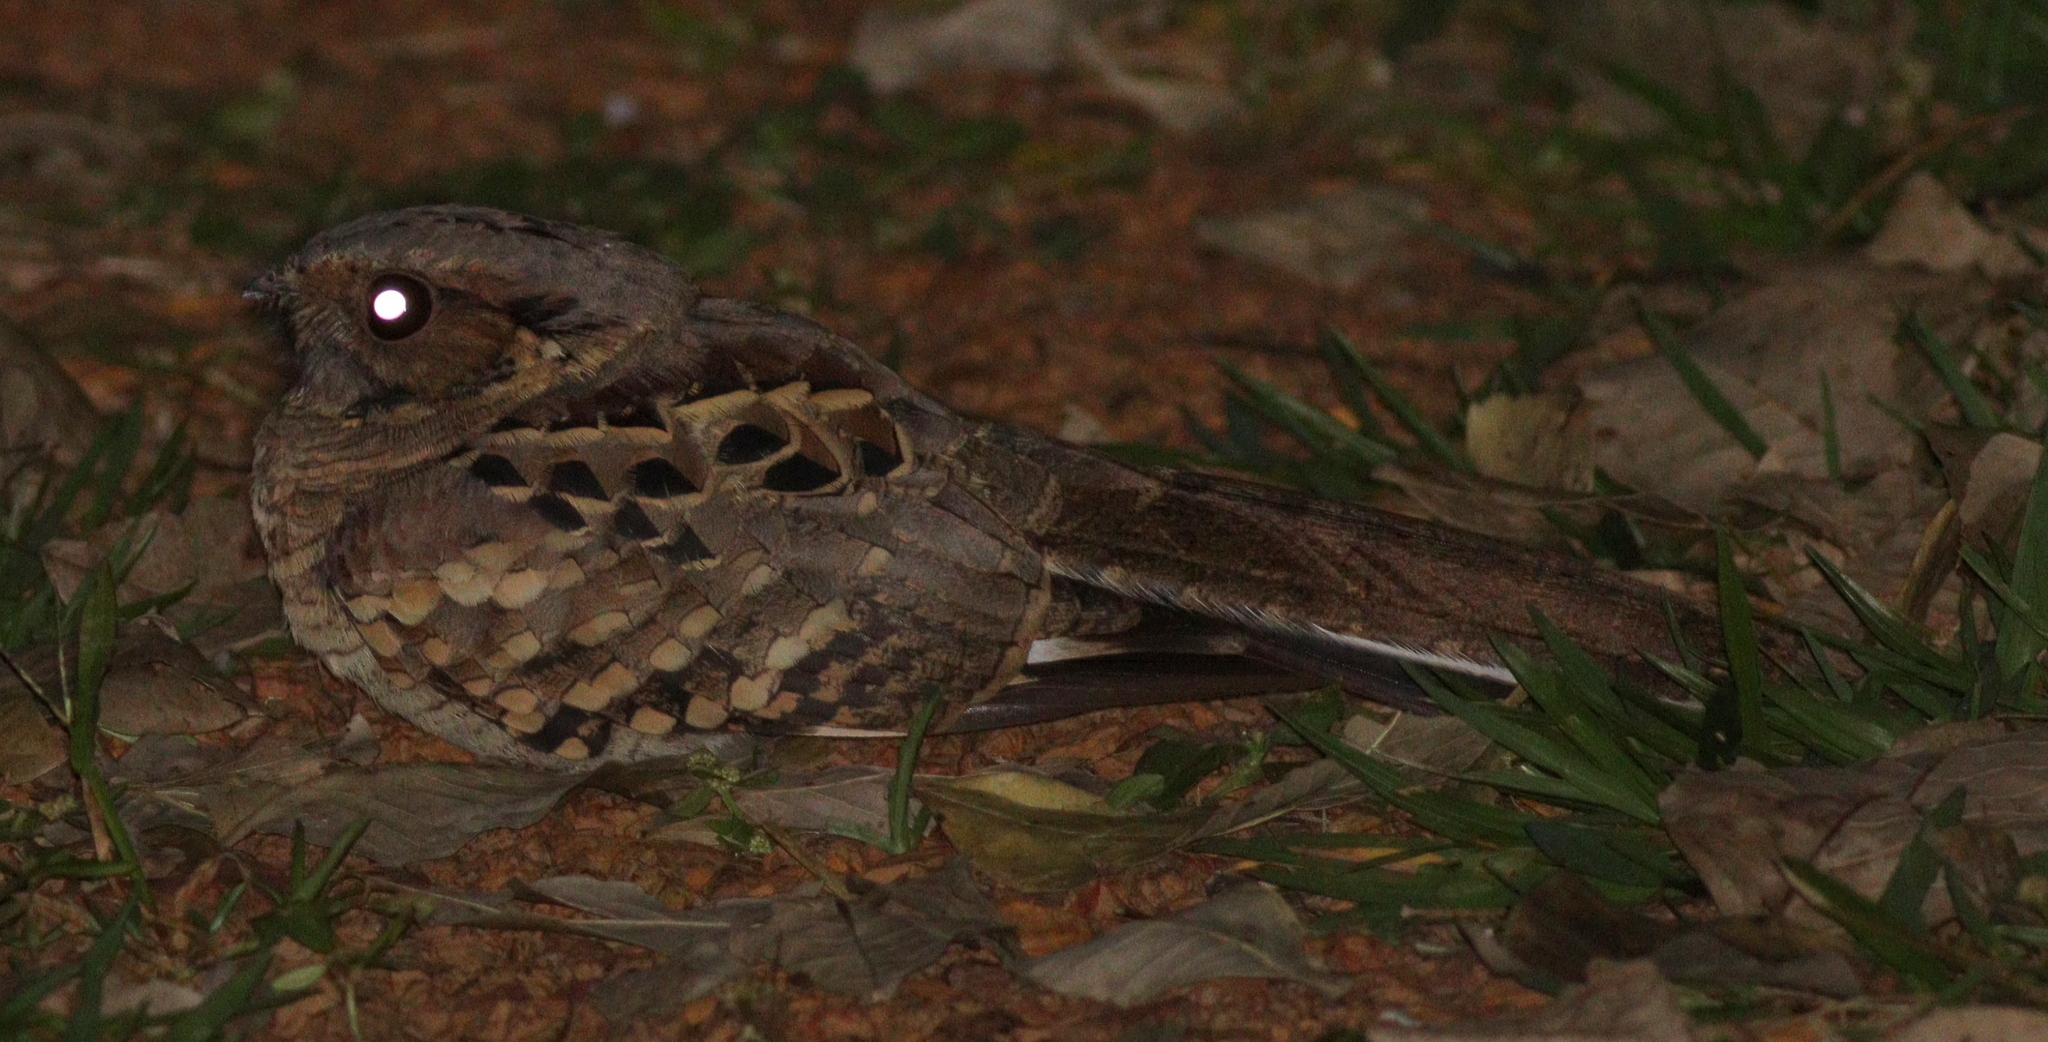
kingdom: Animalia
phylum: Chordata
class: Aves
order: Caprimulgiformes
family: Caprimulgidae
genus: Nyctidromus
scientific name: Nyctidromus albicollis
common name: Pauraque
